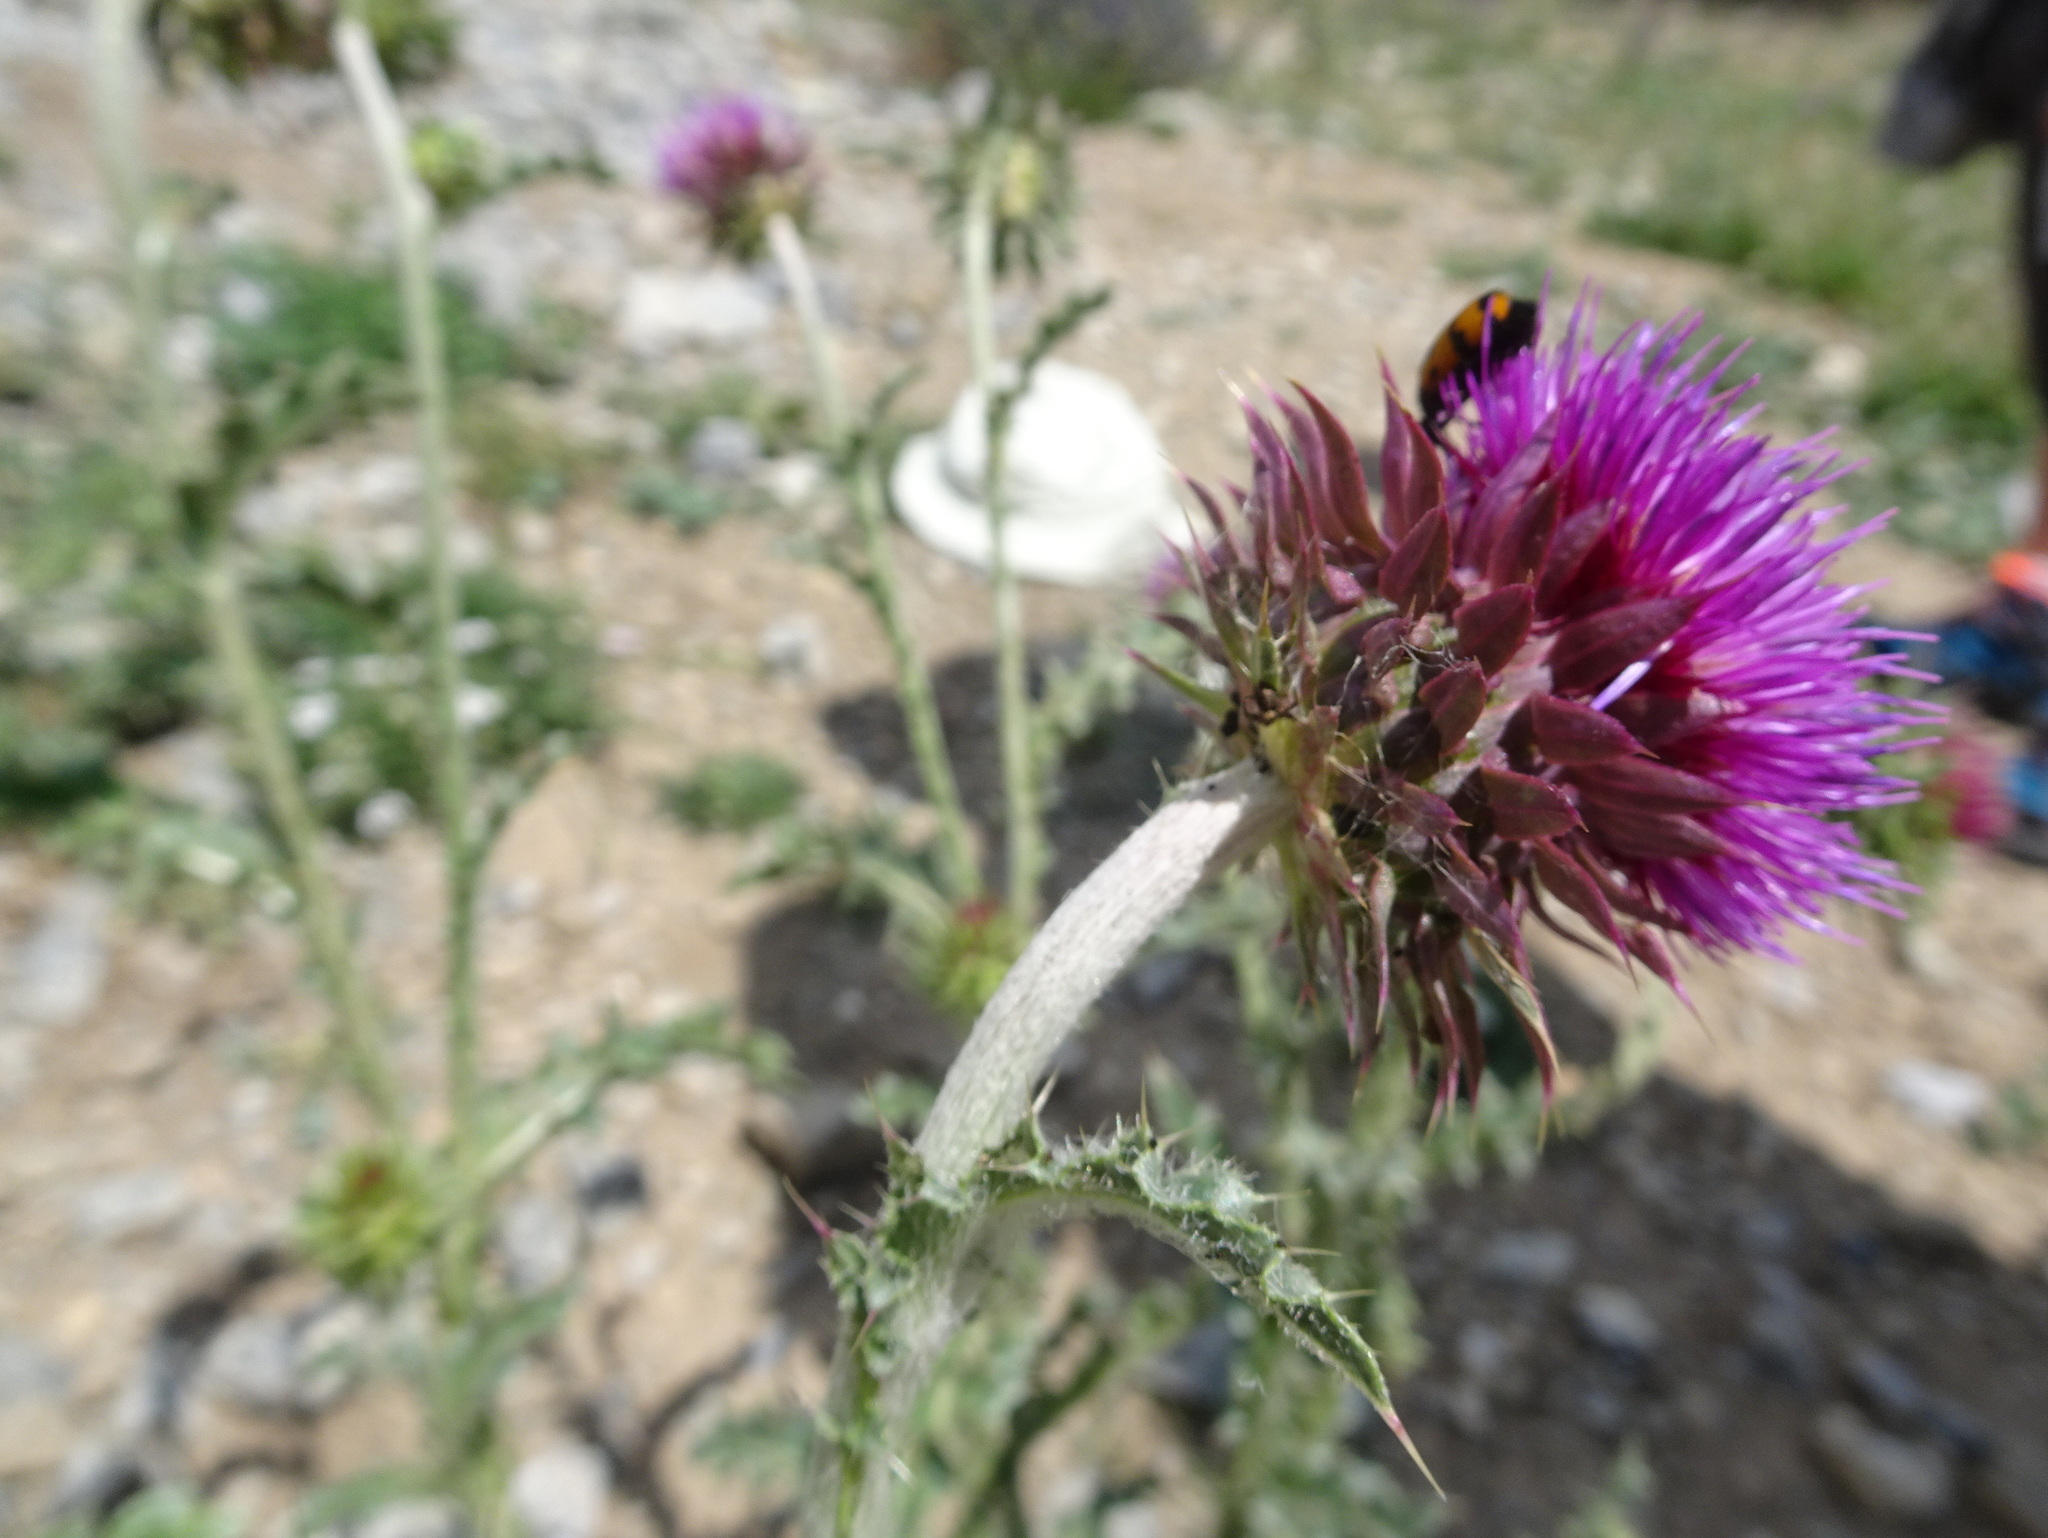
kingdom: Plantae
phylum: Tracheophyta
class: Magnoliopsida
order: Asterales
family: Asteraceae
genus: Carduus
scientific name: Carduus nutans
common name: Musk thistle
